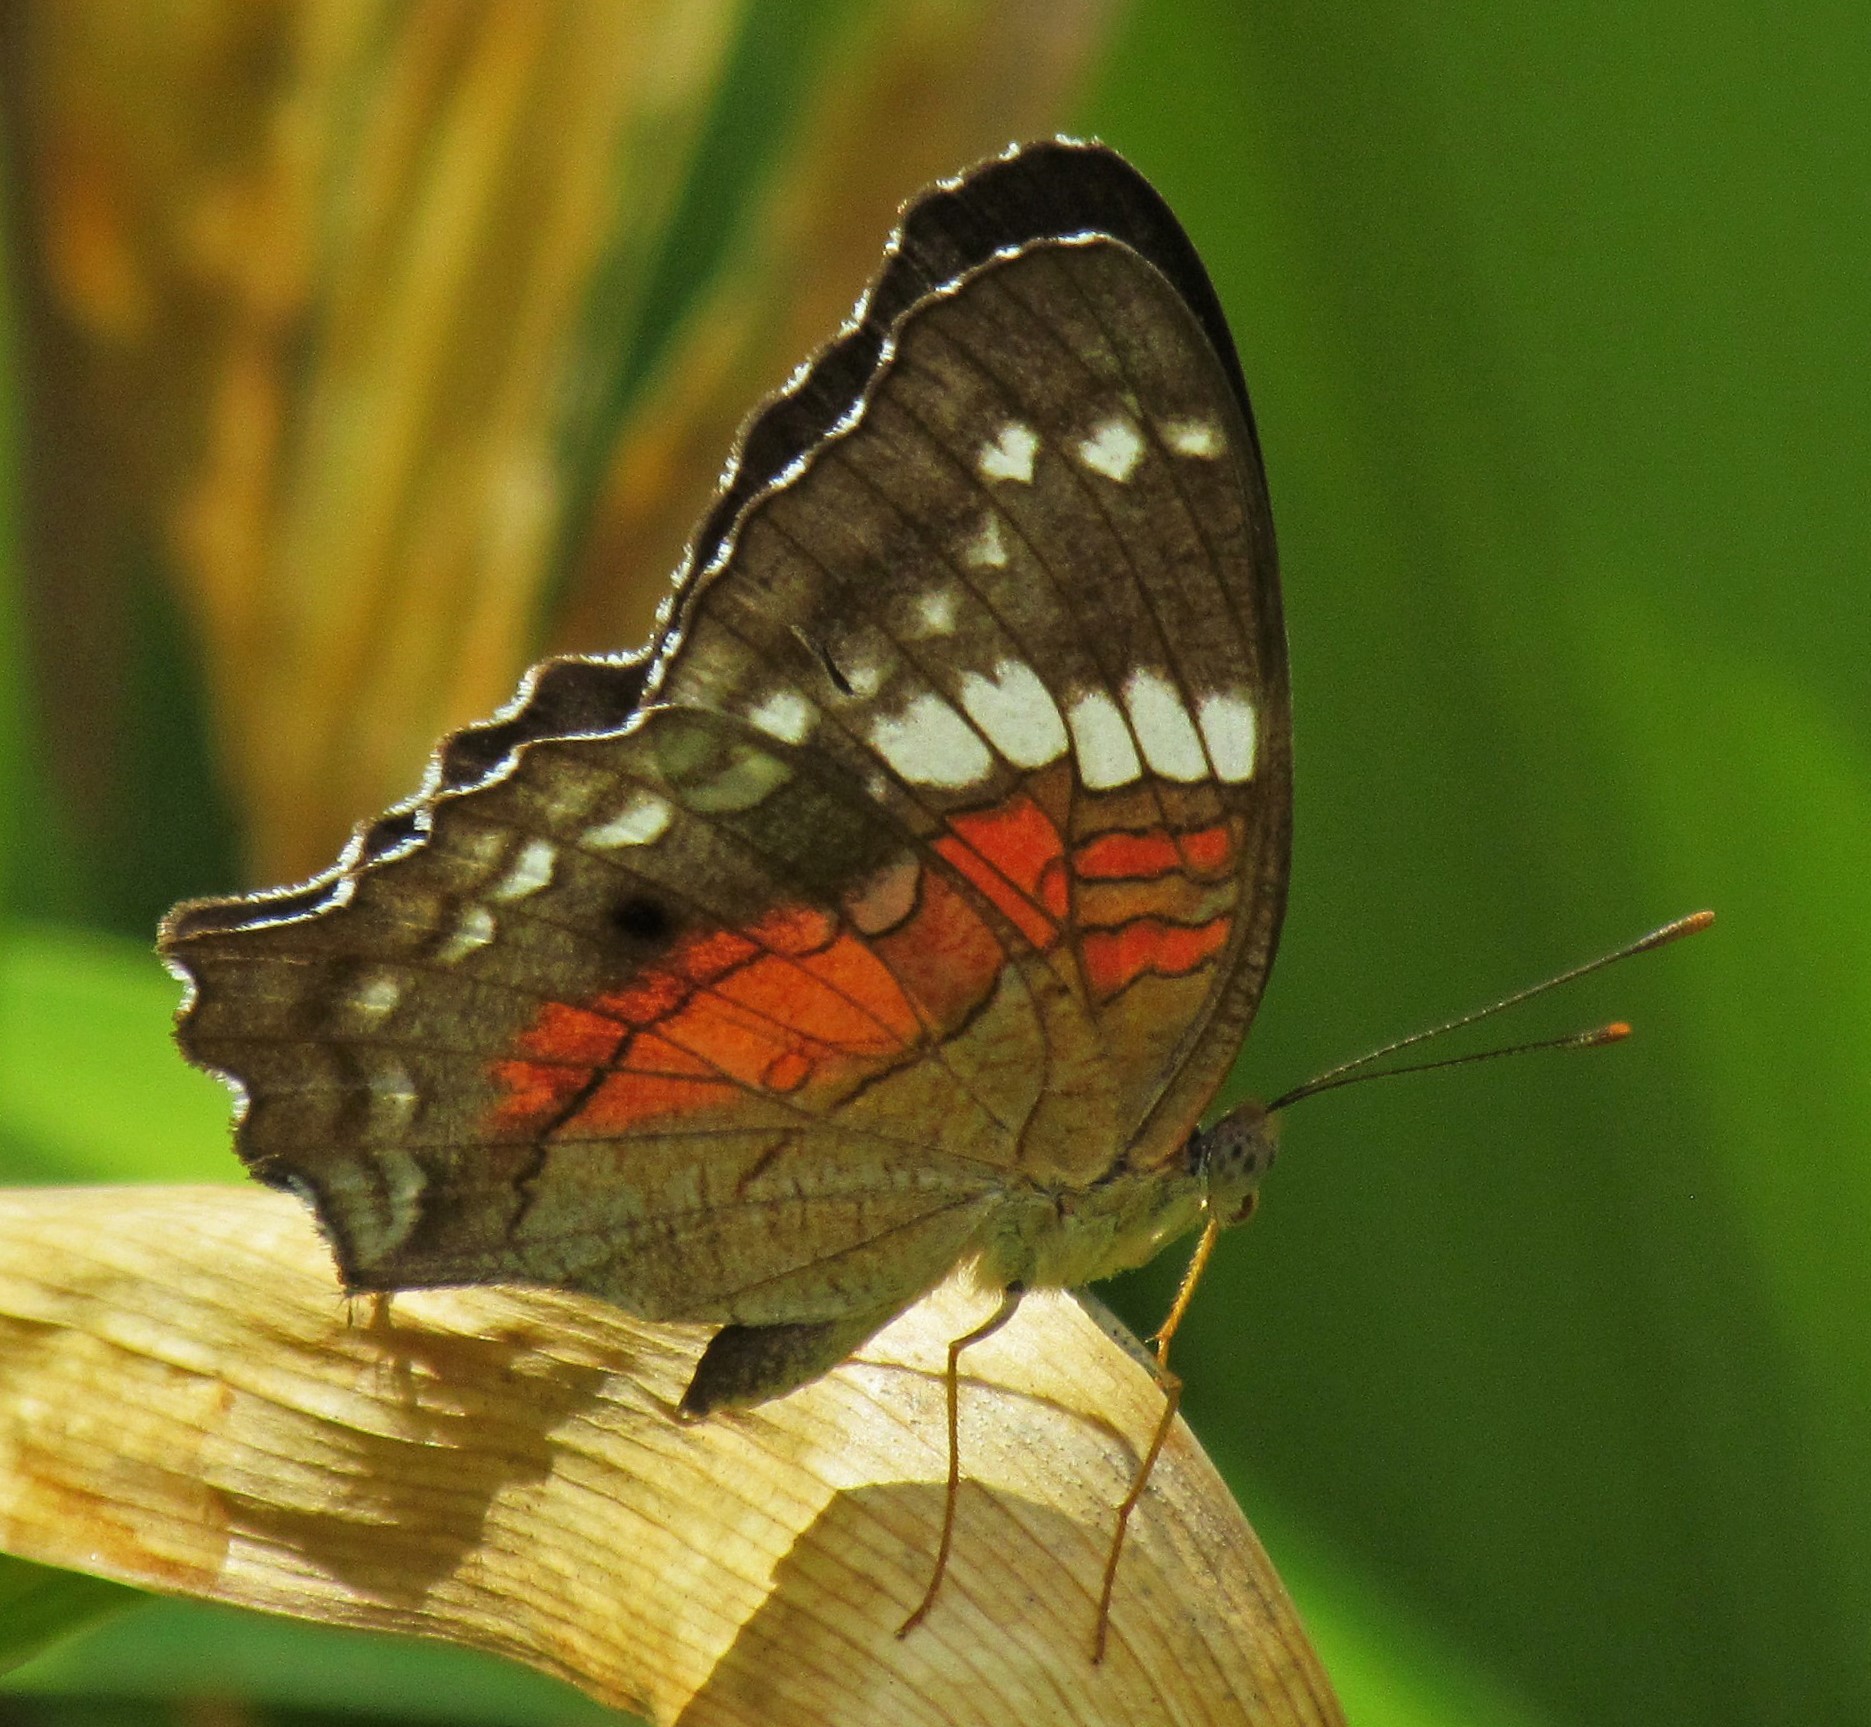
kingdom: Animalia
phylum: Arthropoda
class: Insecta
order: Lepidoptera
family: Nymphalidae
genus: Anartia
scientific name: Anartia amathea
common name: Red peacock
